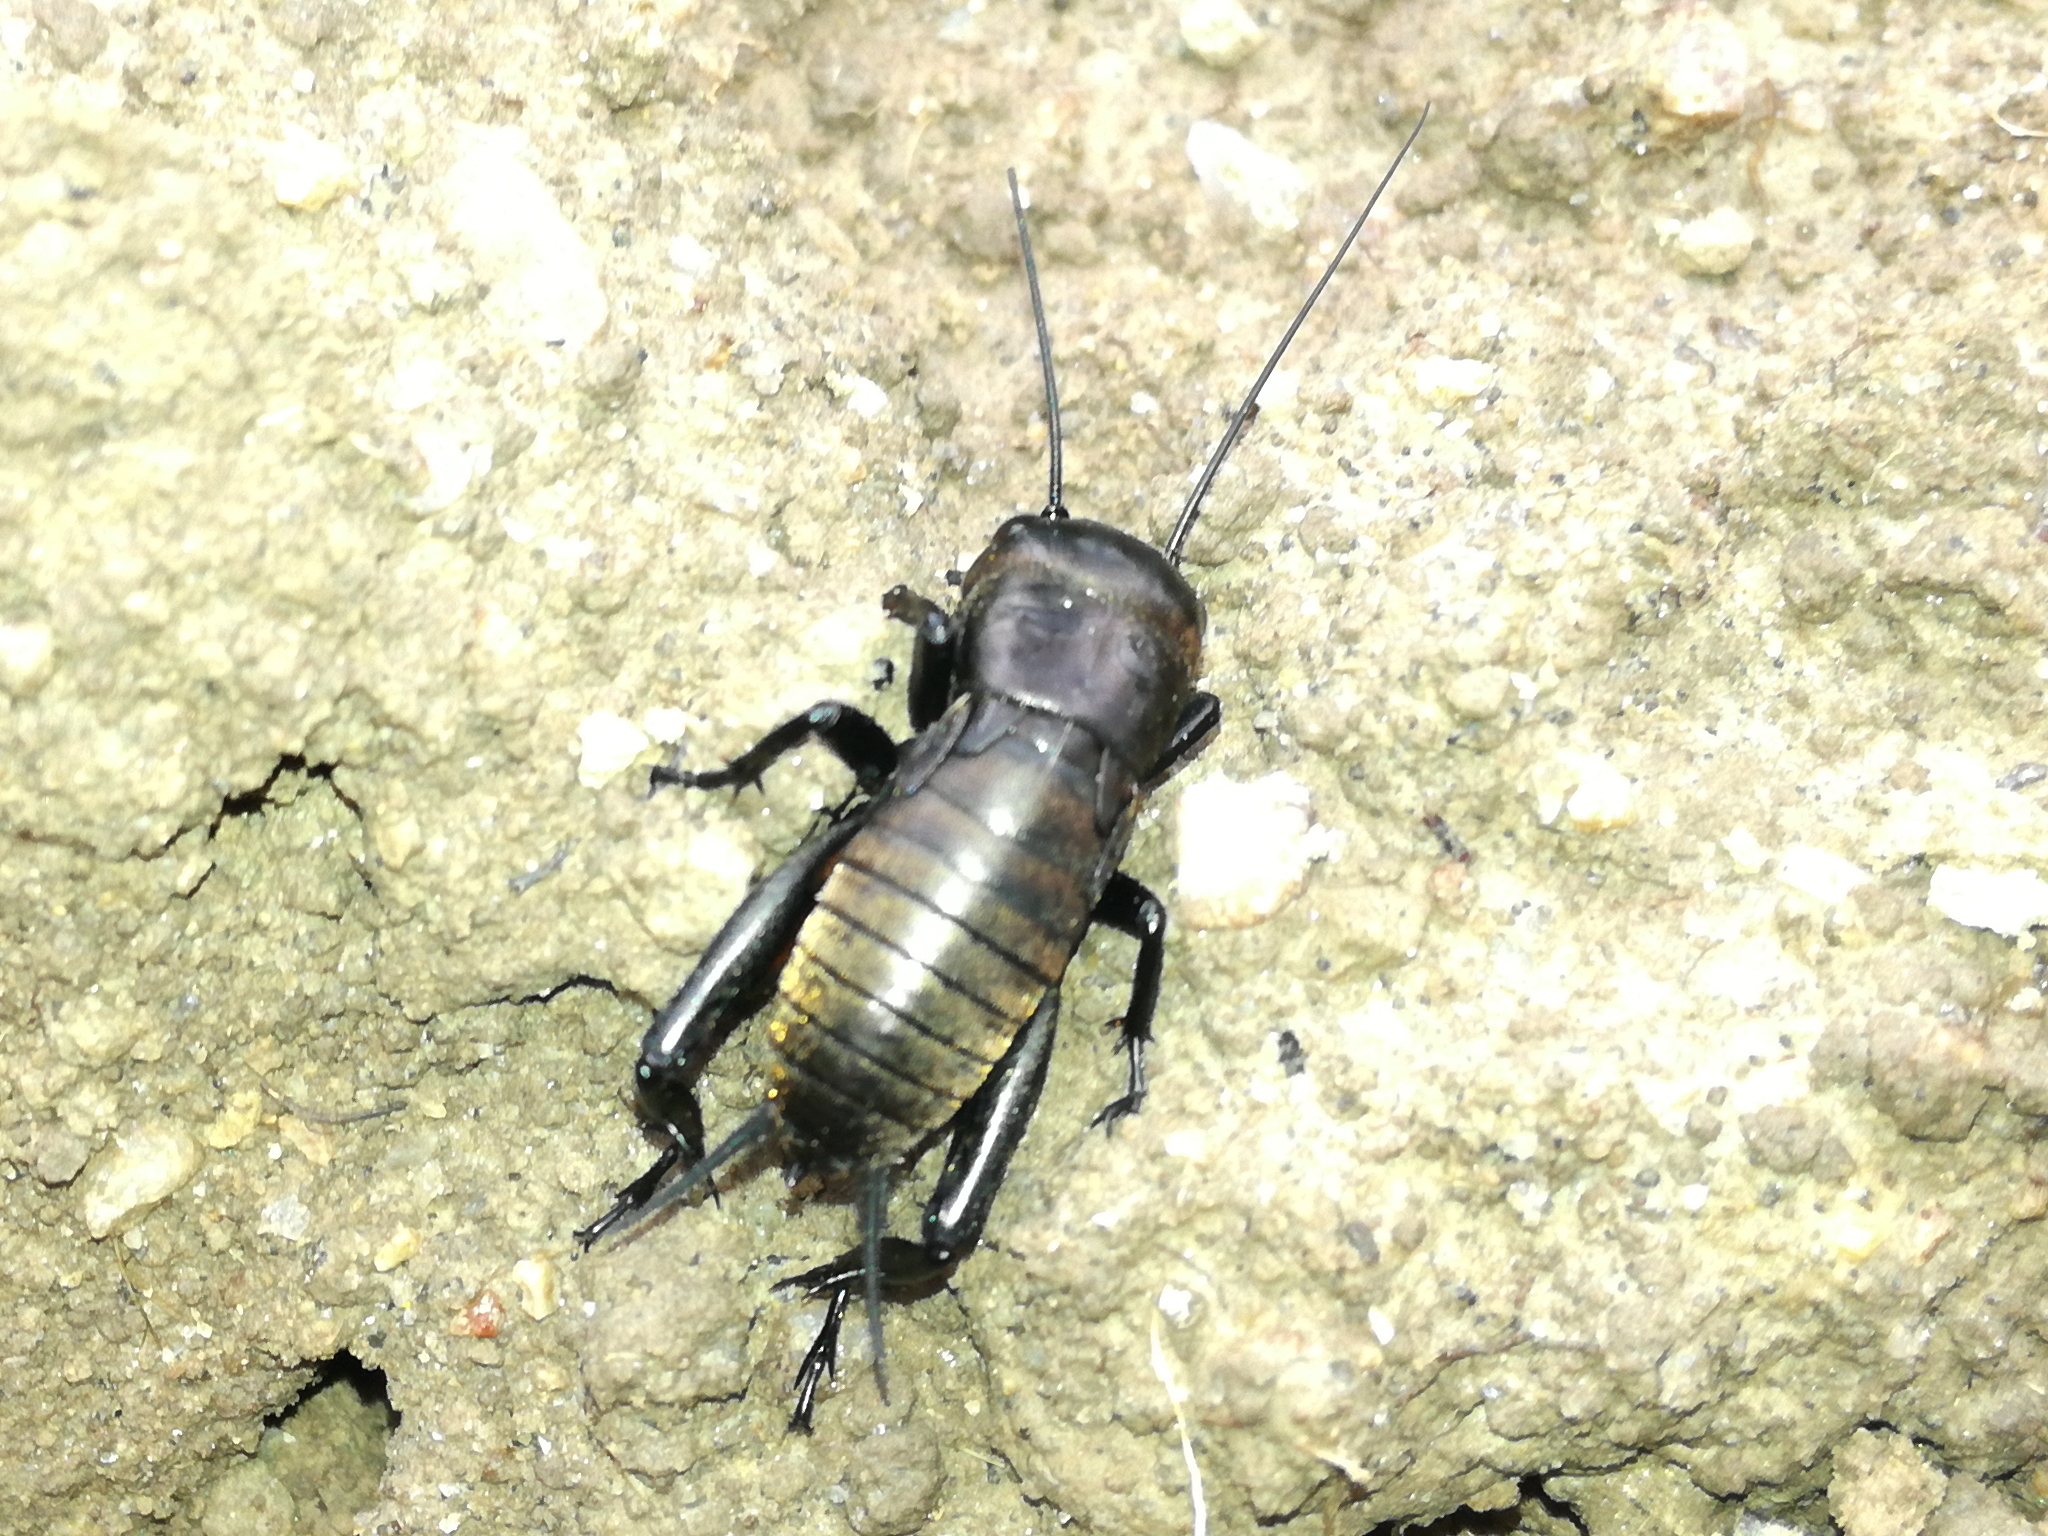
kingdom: Animalia
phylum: Arthropoda
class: Insecta
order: Orthoptera
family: Gryllidae
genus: Gryllus
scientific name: Gryllus campestris
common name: Field cricket
